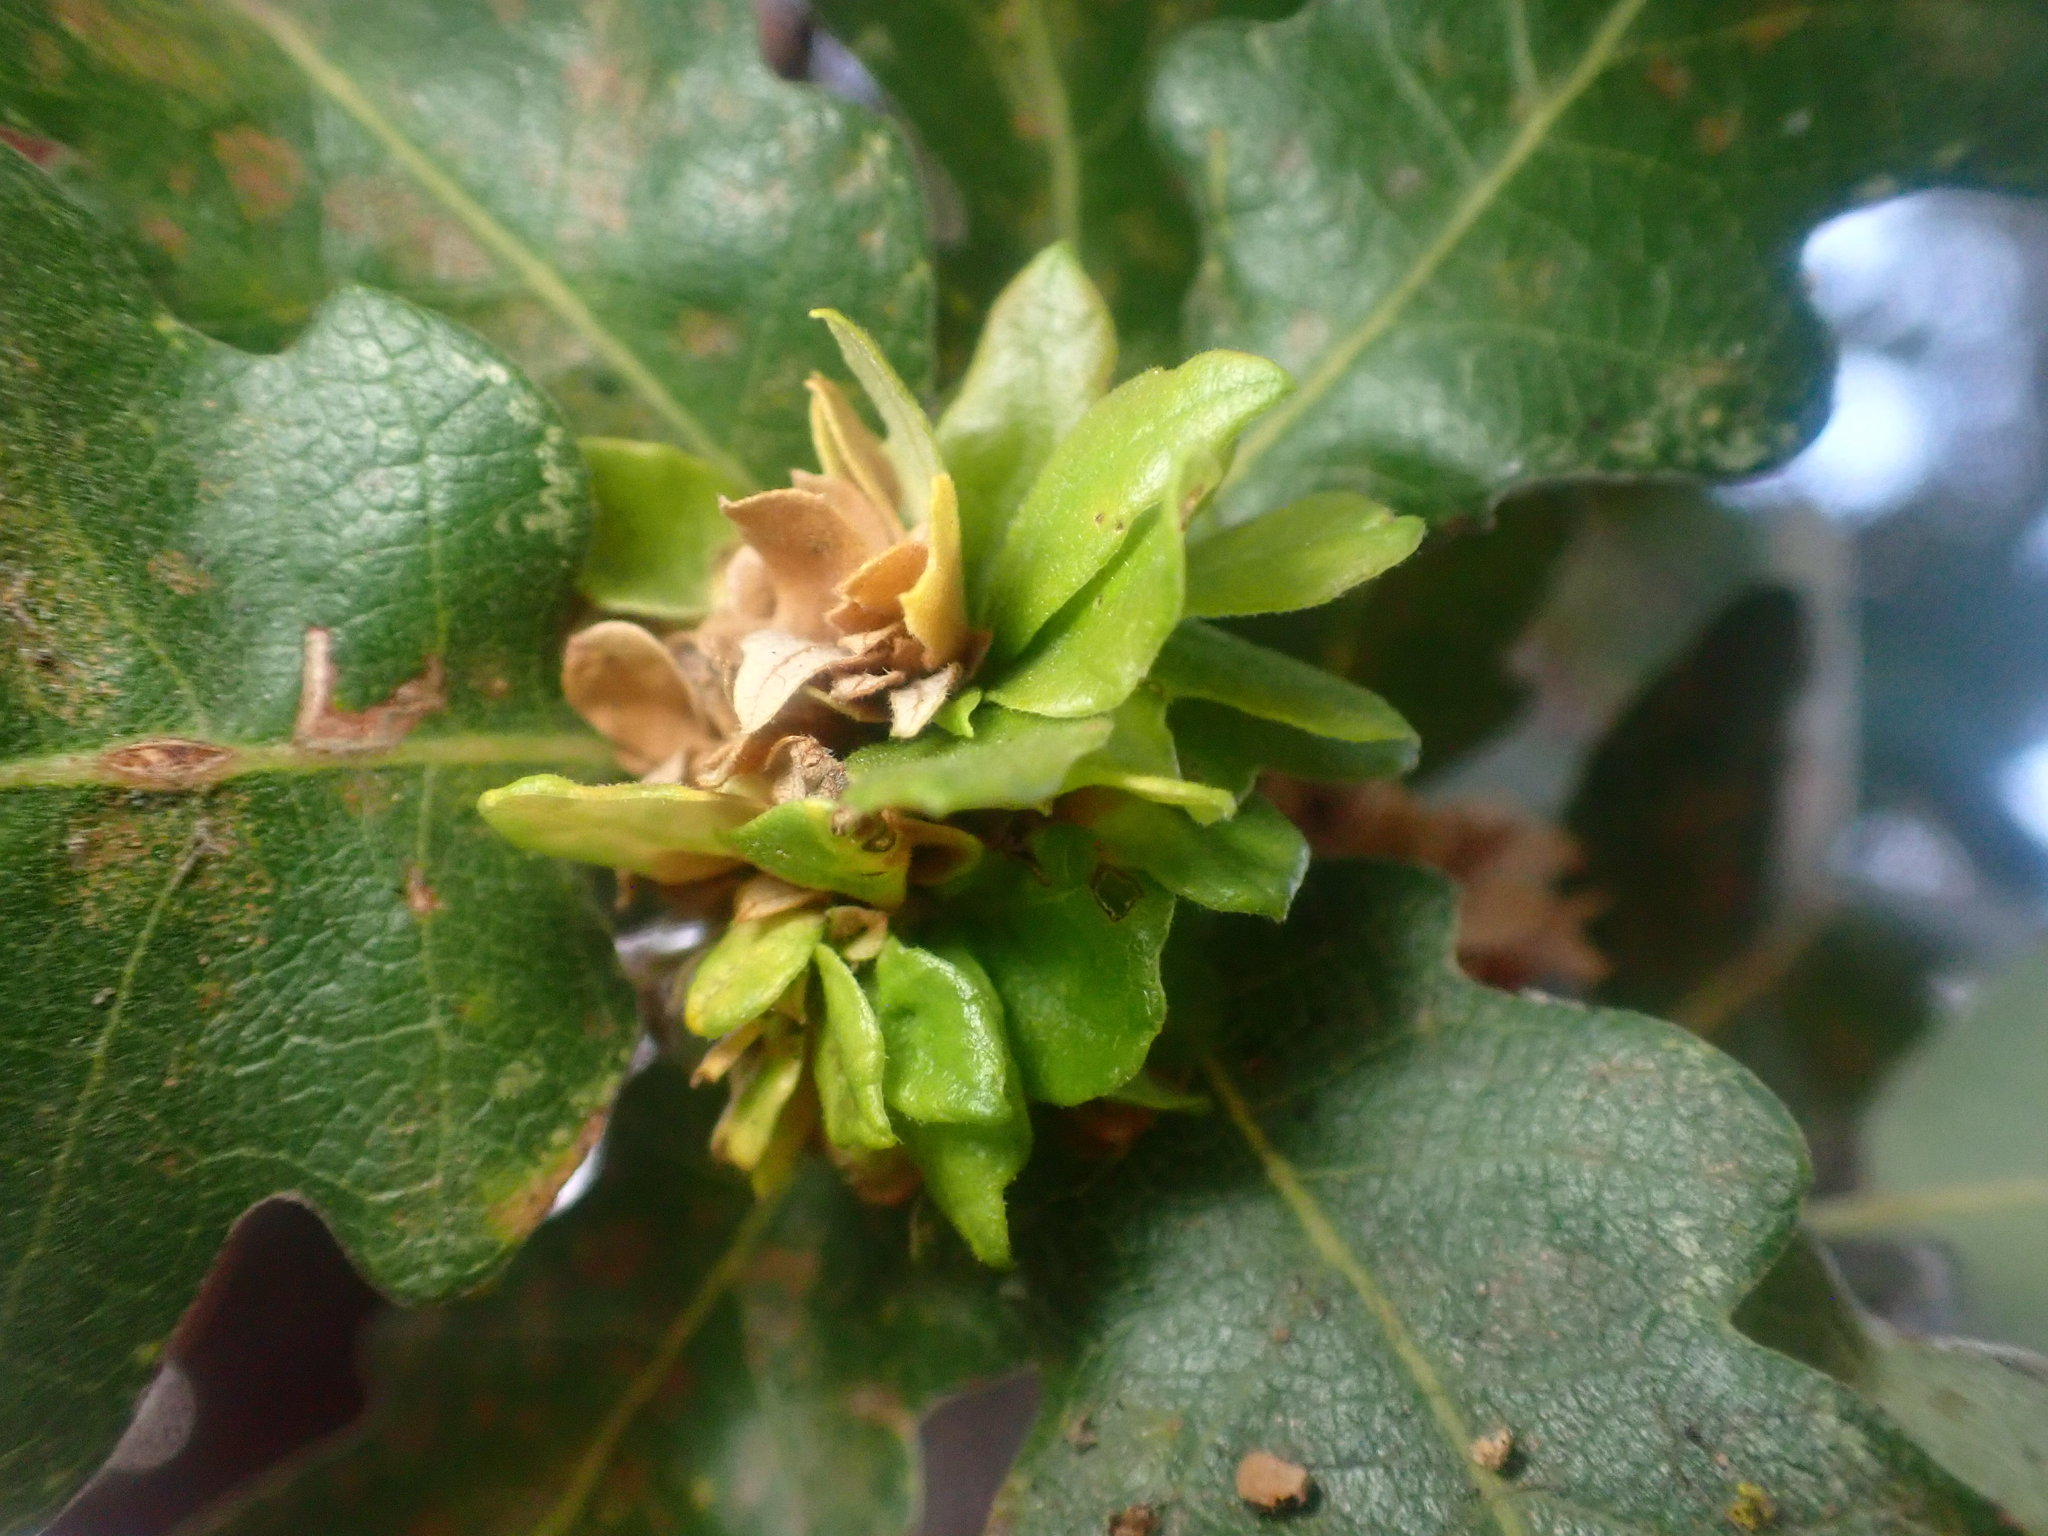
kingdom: Animalia
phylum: Arthropoda
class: Insecta
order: Hymenoptera
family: Cynipidae
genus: Andricus
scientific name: Andricus
